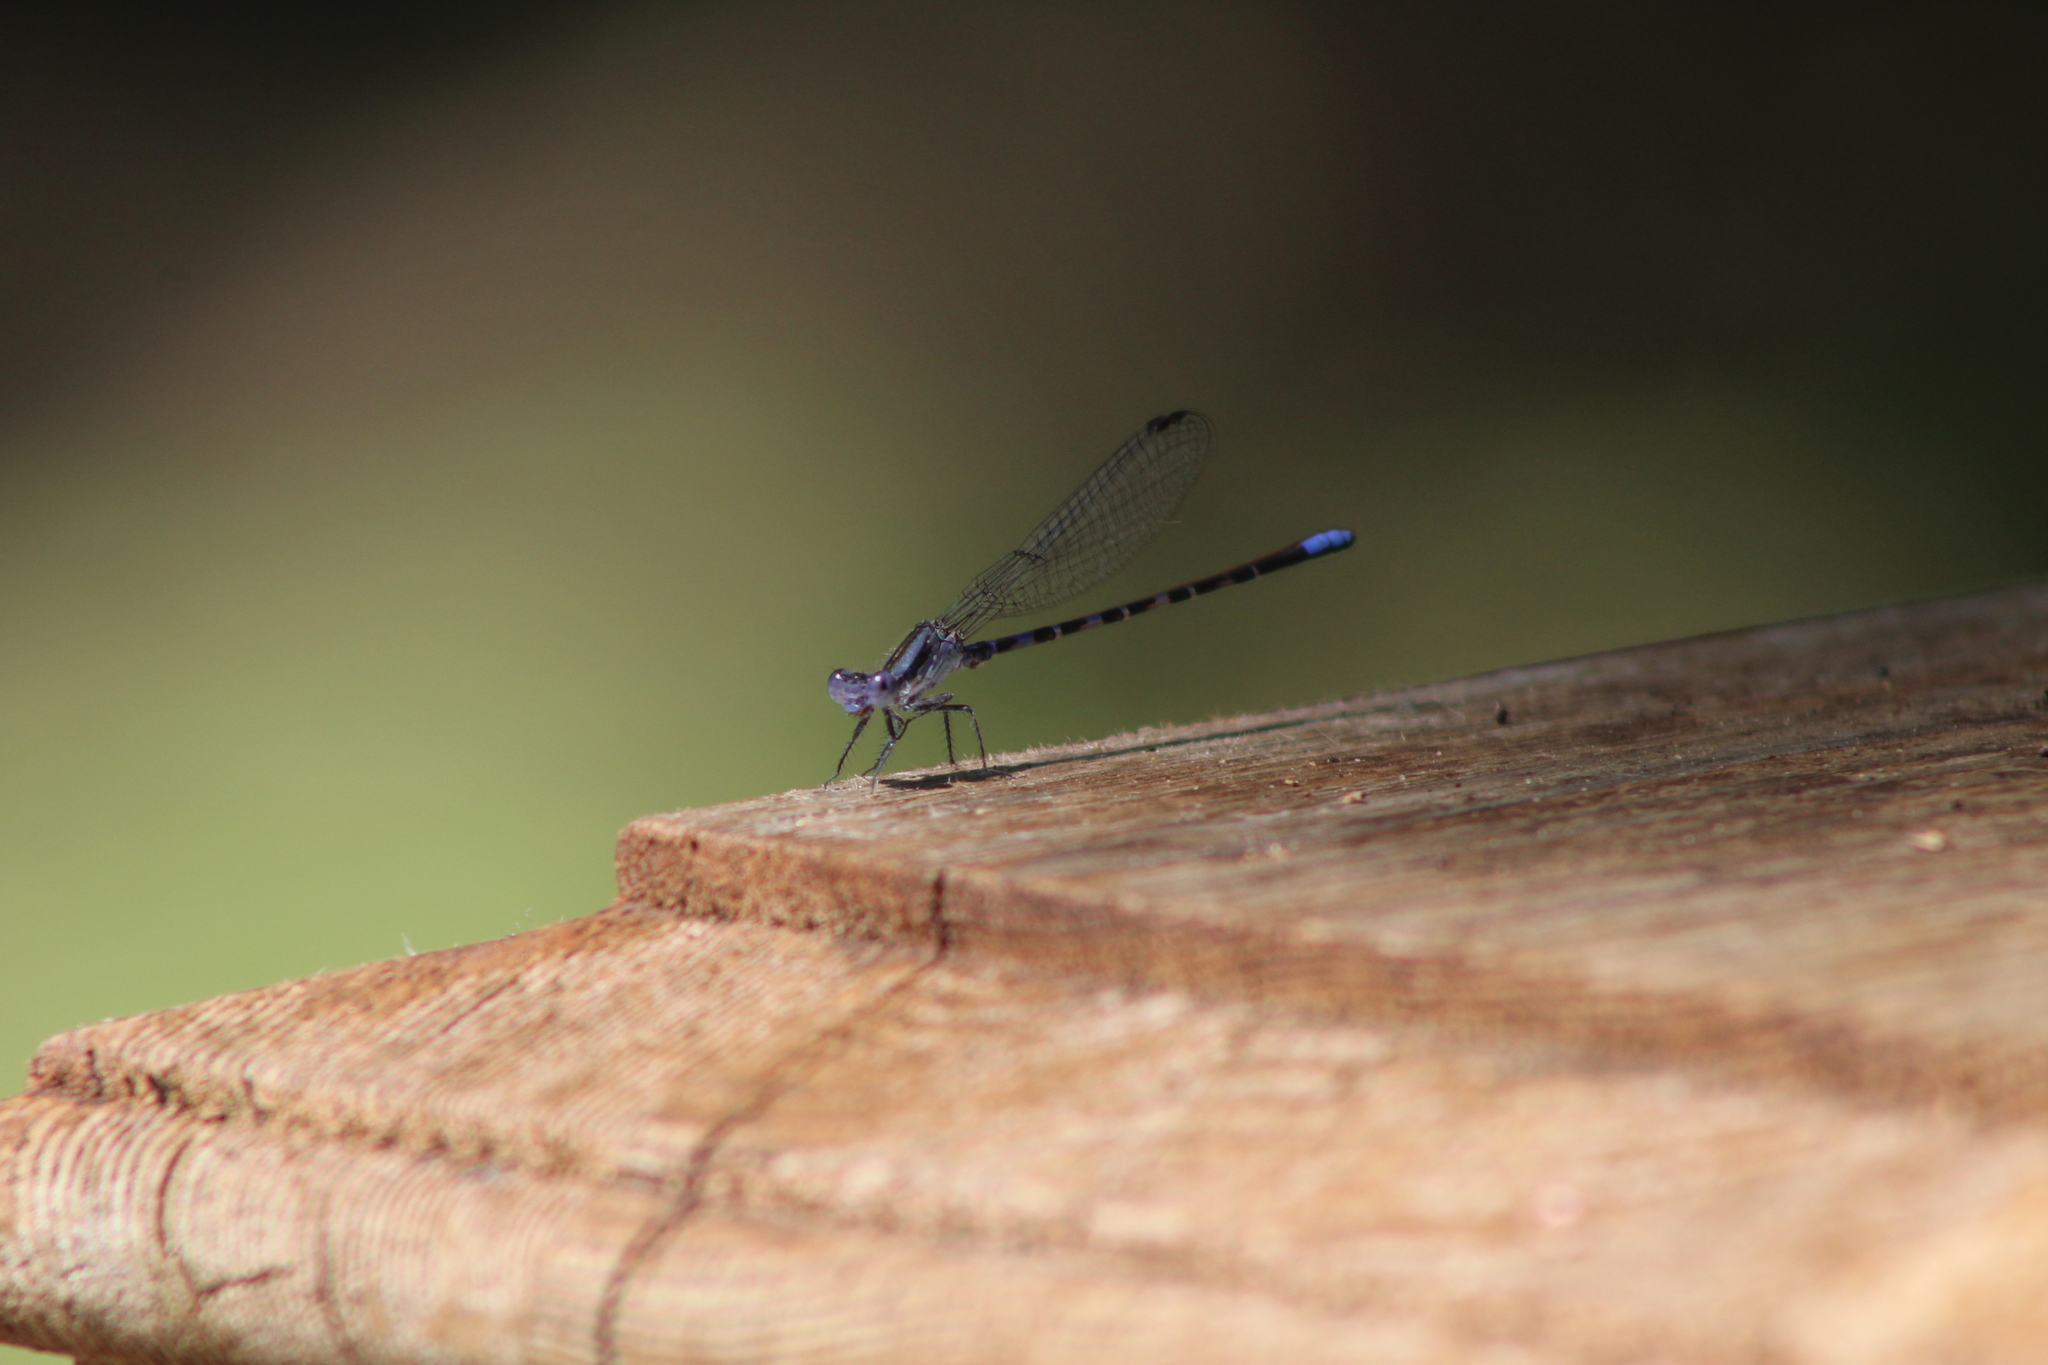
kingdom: Animalia
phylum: Arthropoda
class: Insecta
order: Odonata
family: Coenagrionidae
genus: Argia
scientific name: Argia immunda
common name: Kiowa dancer
